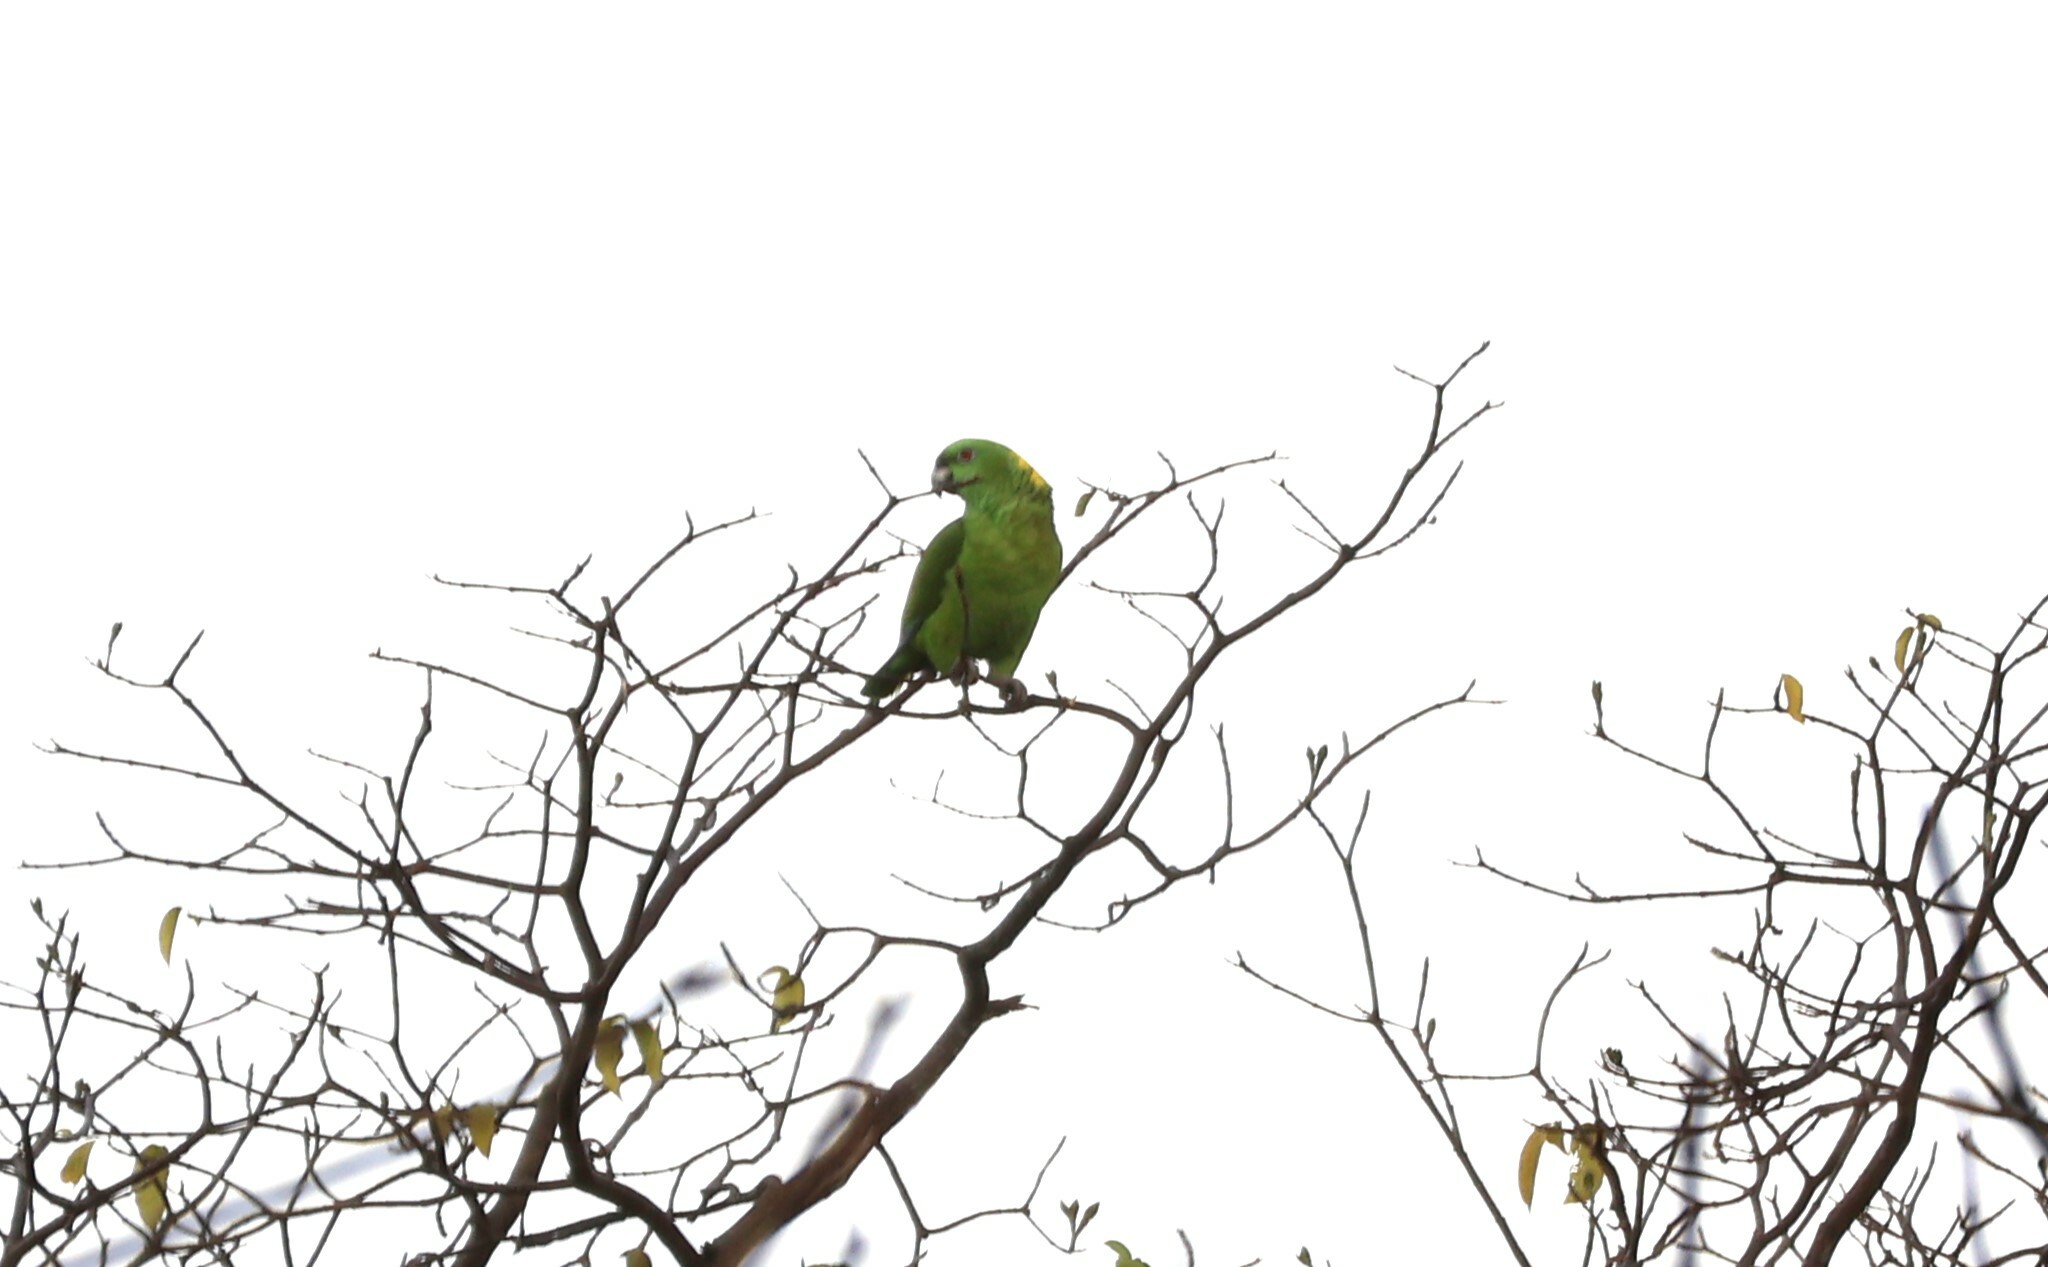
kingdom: Animalia
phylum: Chordata
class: Aves
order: Psittaciformes
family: Psittacidae
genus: Amazona
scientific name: Amazona auropalliata
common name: Yellow-naped amazon
